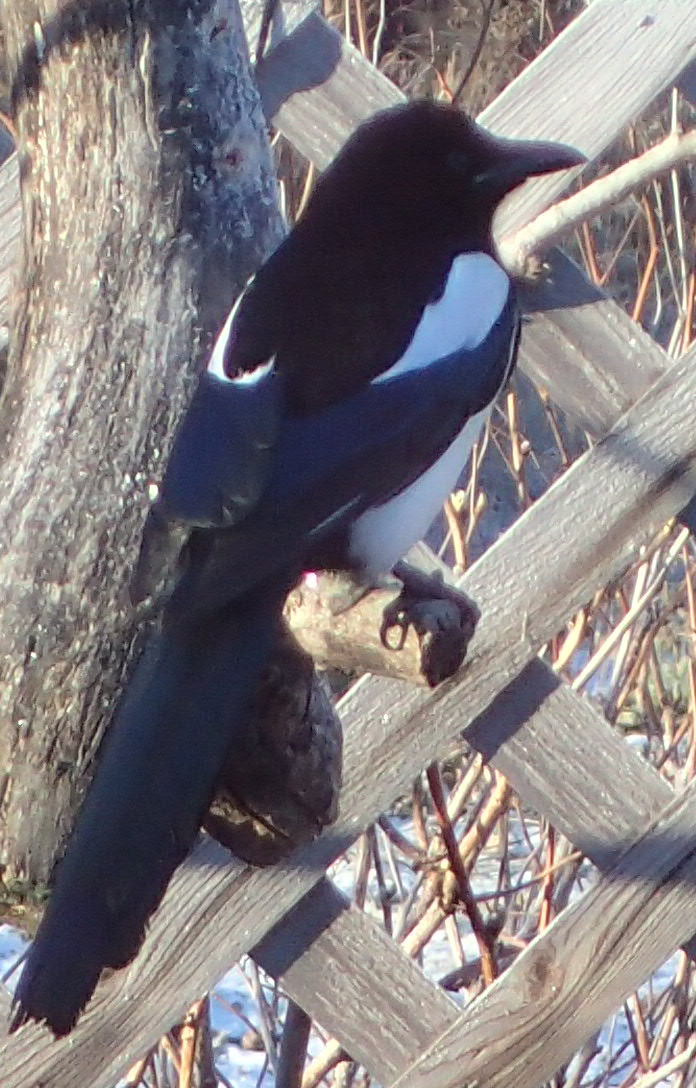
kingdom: Animalia
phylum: Chordata
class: Aves
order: Passeriformes
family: Corvidae
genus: Pica
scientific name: Pica hudsonia
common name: Black-billed magpie
